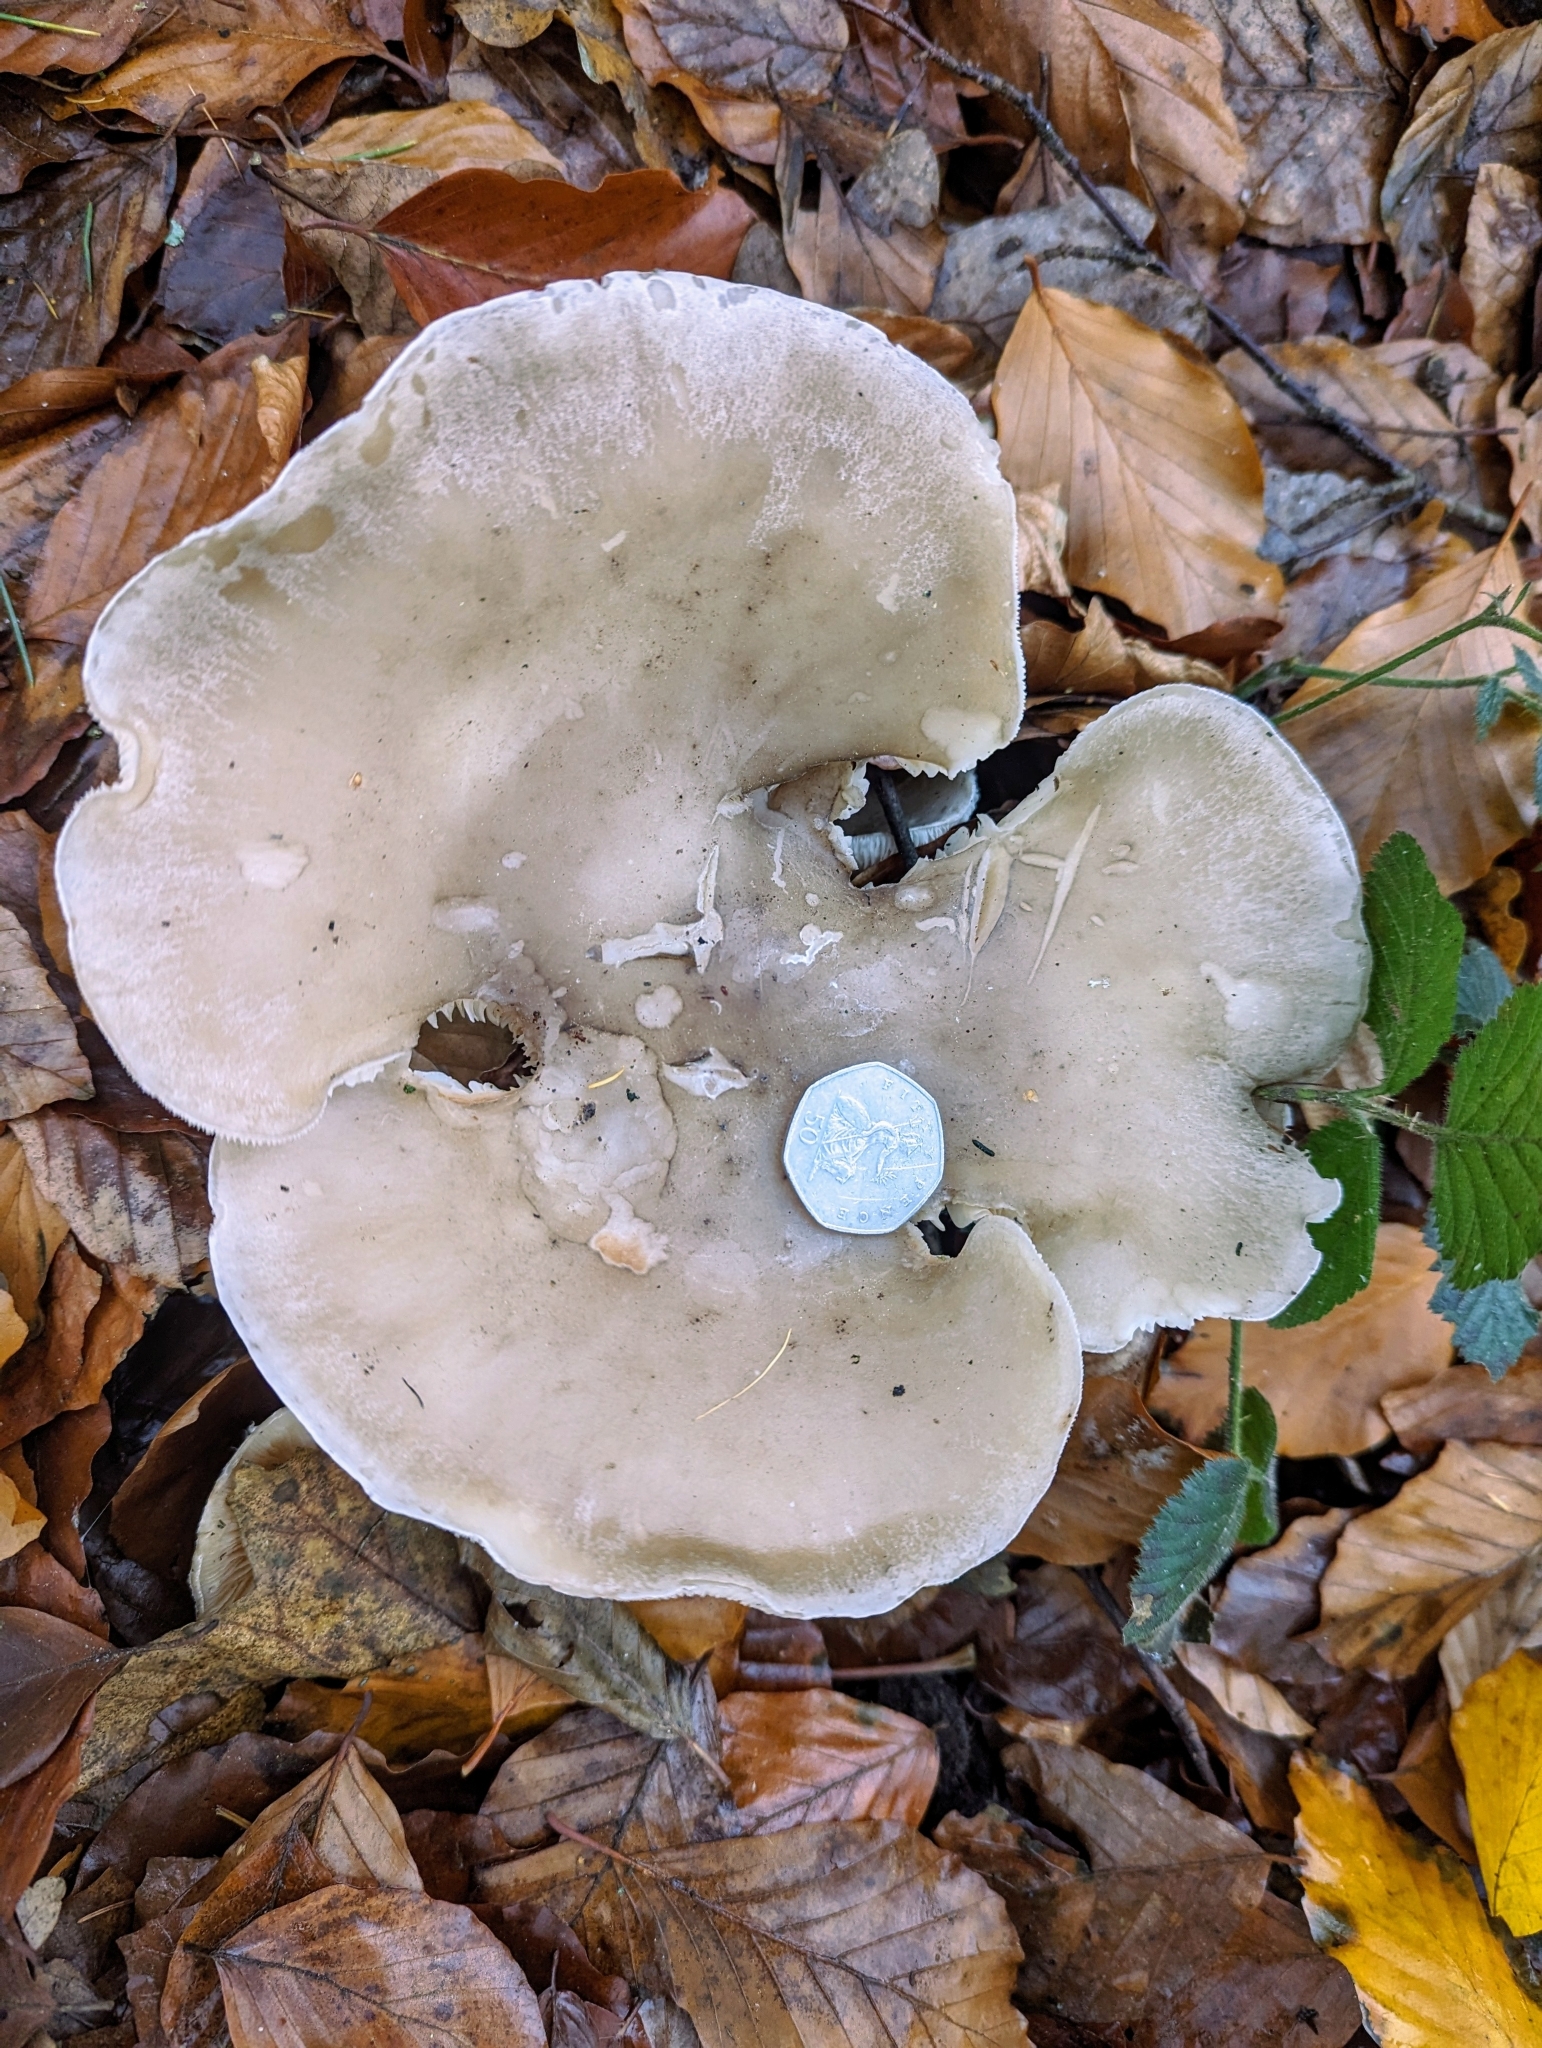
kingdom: Fungi
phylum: Basidiomycota
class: Agaricomycetes
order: Agaricales
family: Tricholomataceae
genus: Clitocybe
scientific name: Clitocybe nebularis
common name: Clouded agaric
